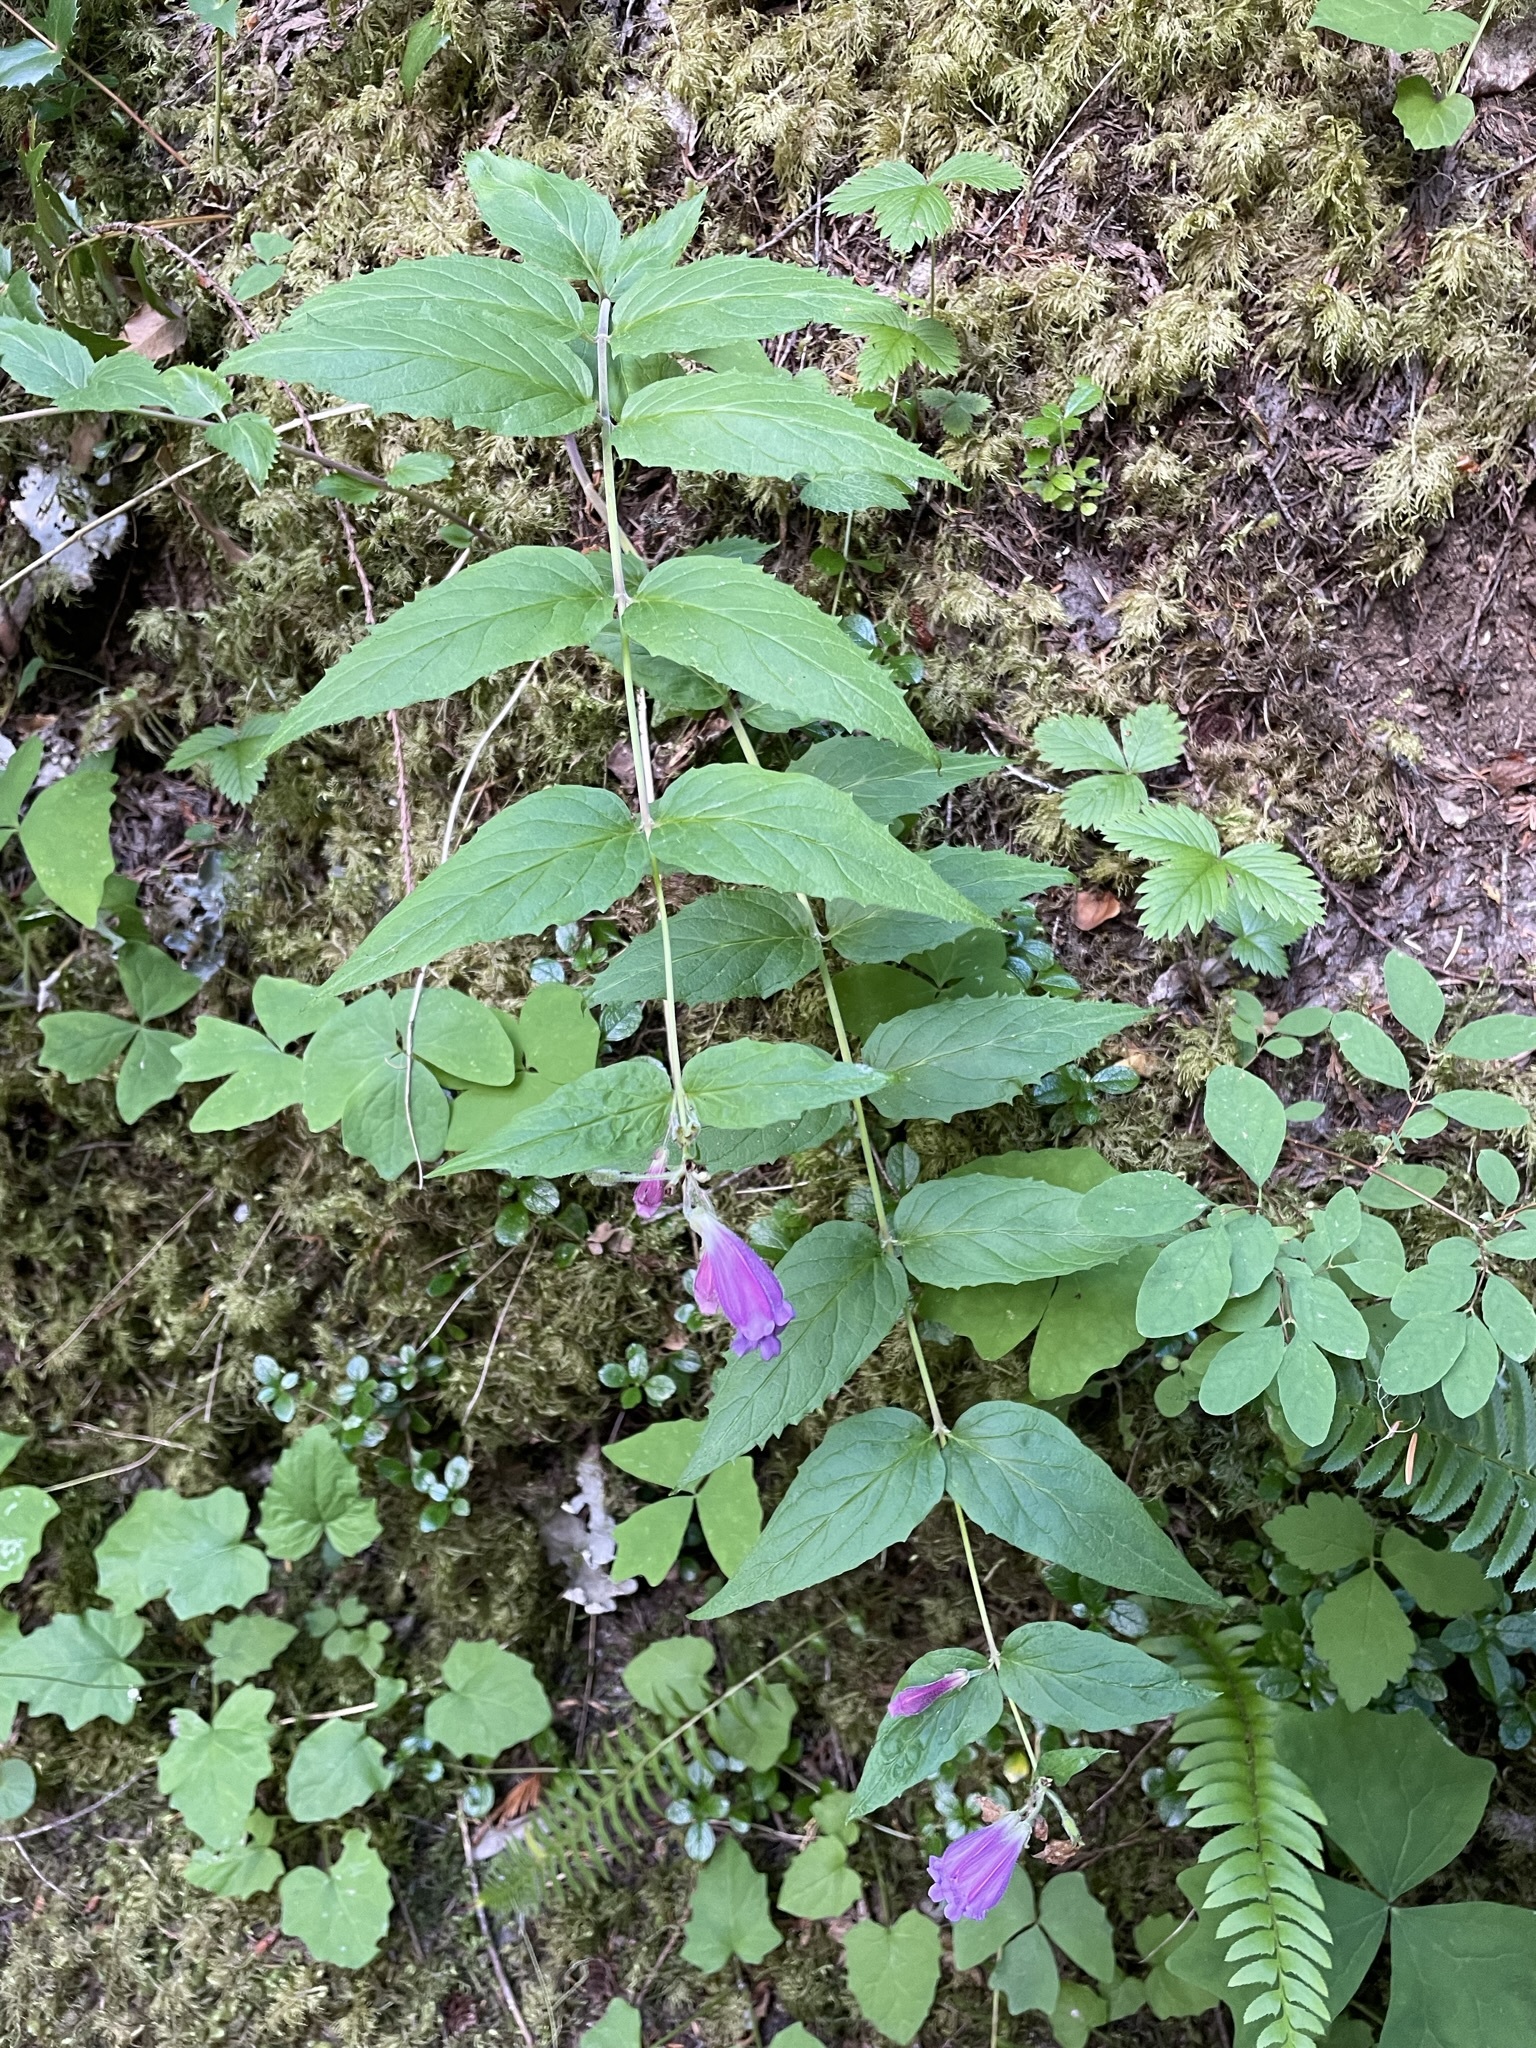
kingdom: Plantae
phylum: Tracheophyta
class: Magnoliopsida
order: Lamiales
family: Plantaginaceae
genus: Nothochelone
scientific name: Nothochelone nemorosa
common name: Woodland beardtongue
